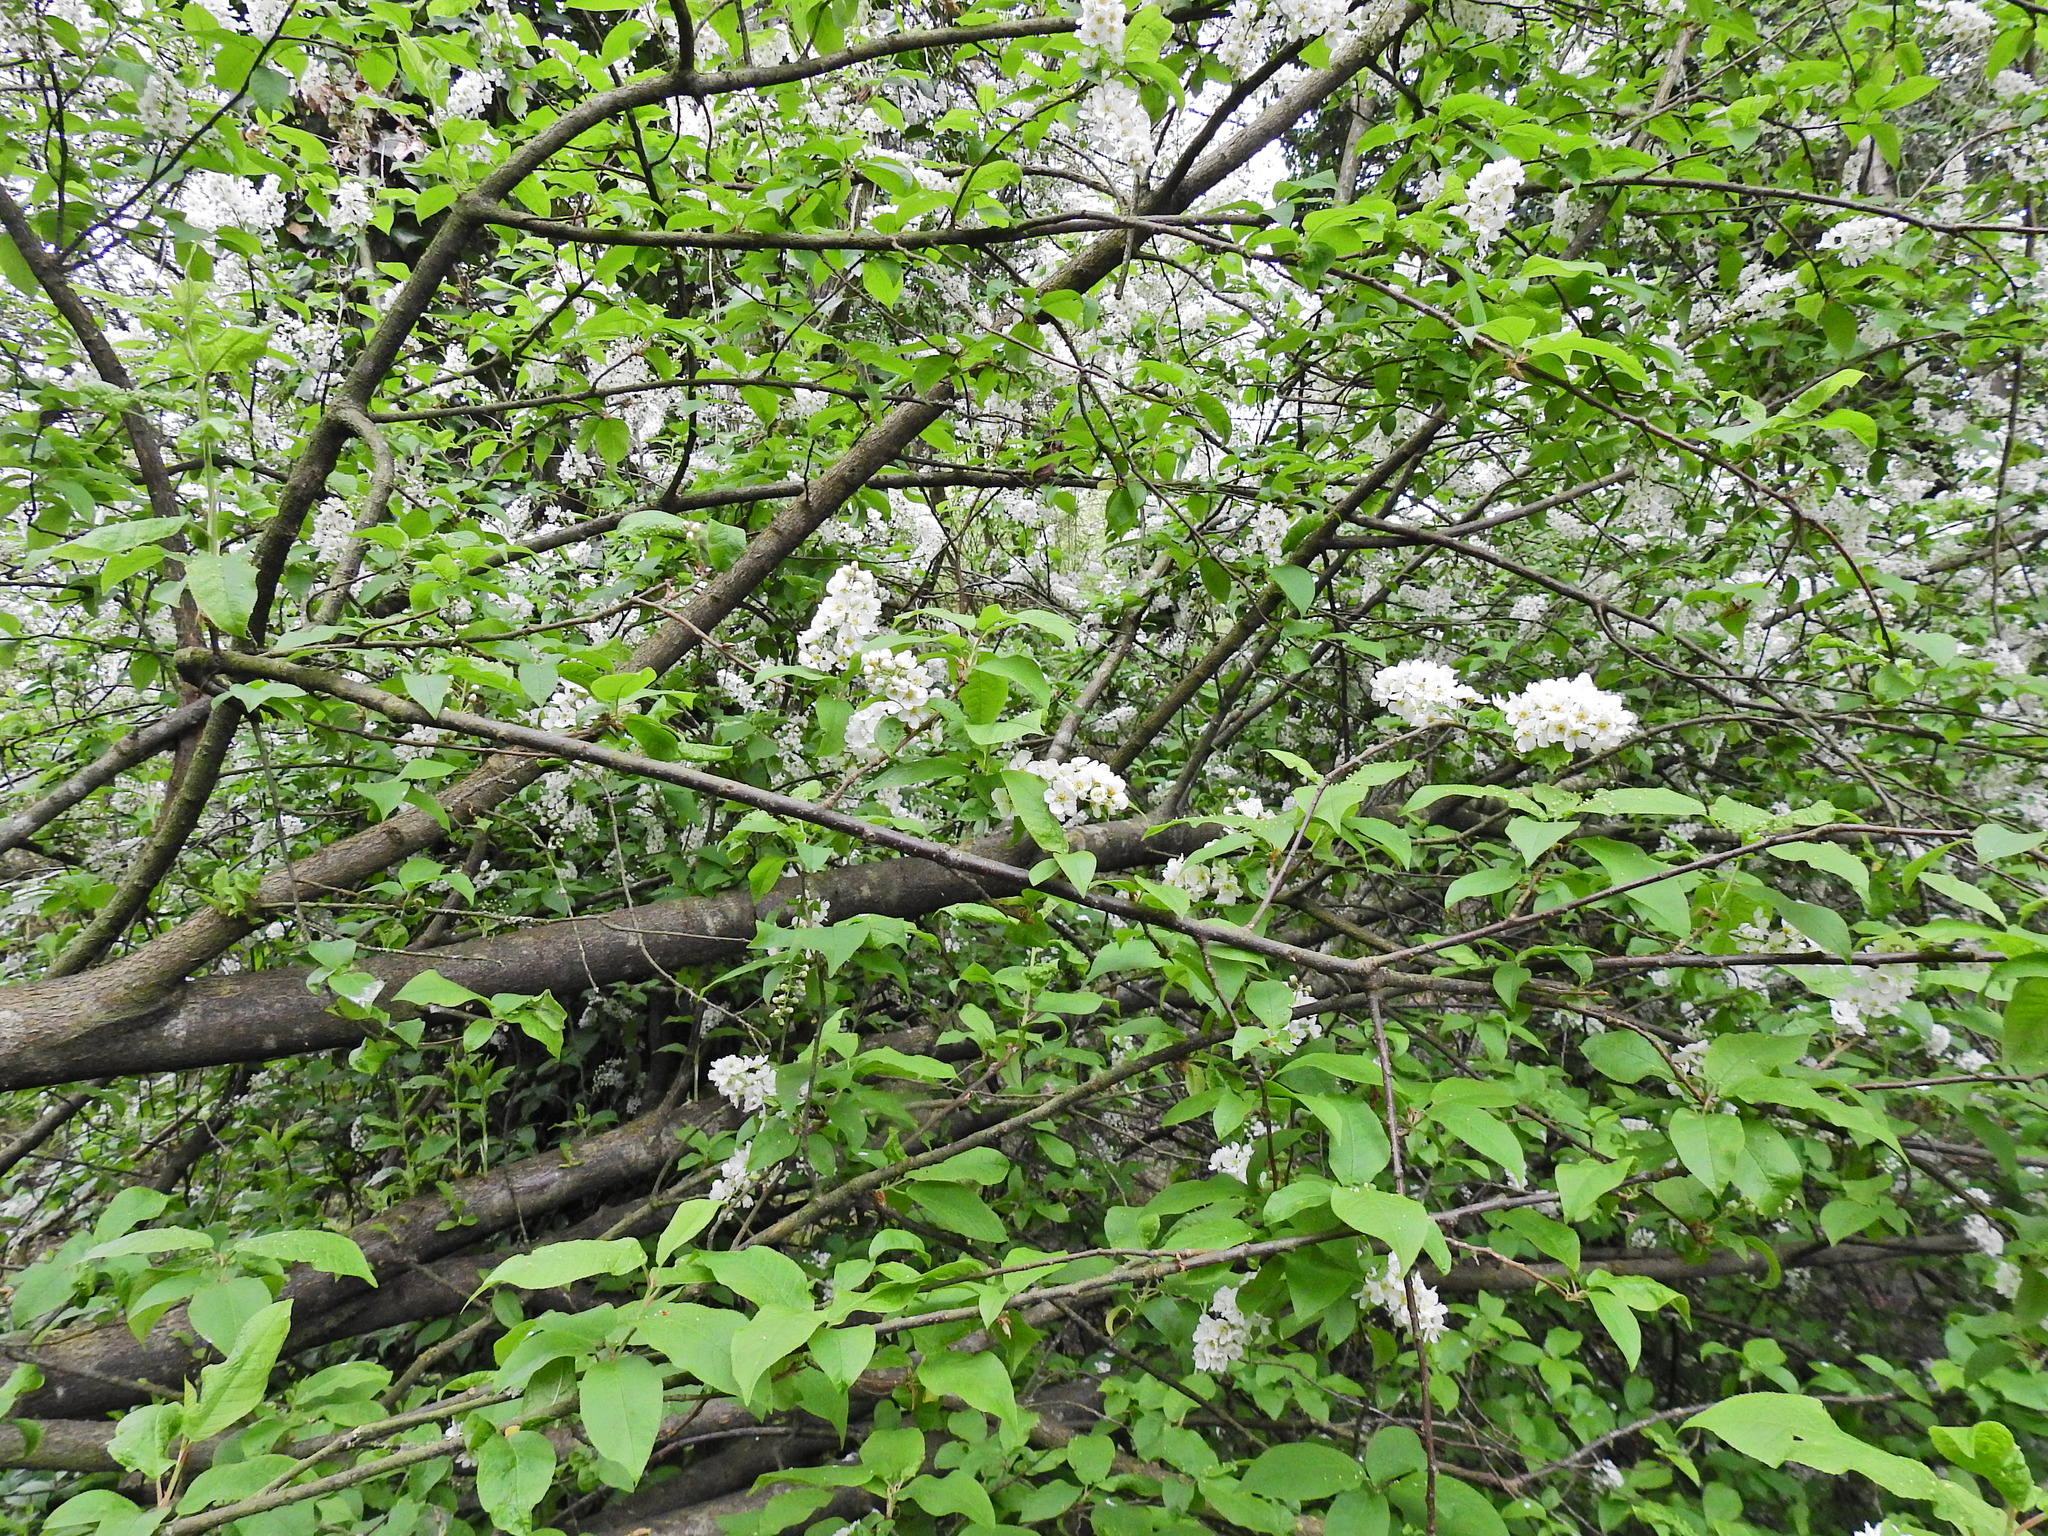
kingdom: Plantae
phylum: Tracheophyta
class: Magnoliopsida
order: Rosales
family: Rosaceae
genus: Prunus
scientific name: Prunus padus
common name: Bird cherry
